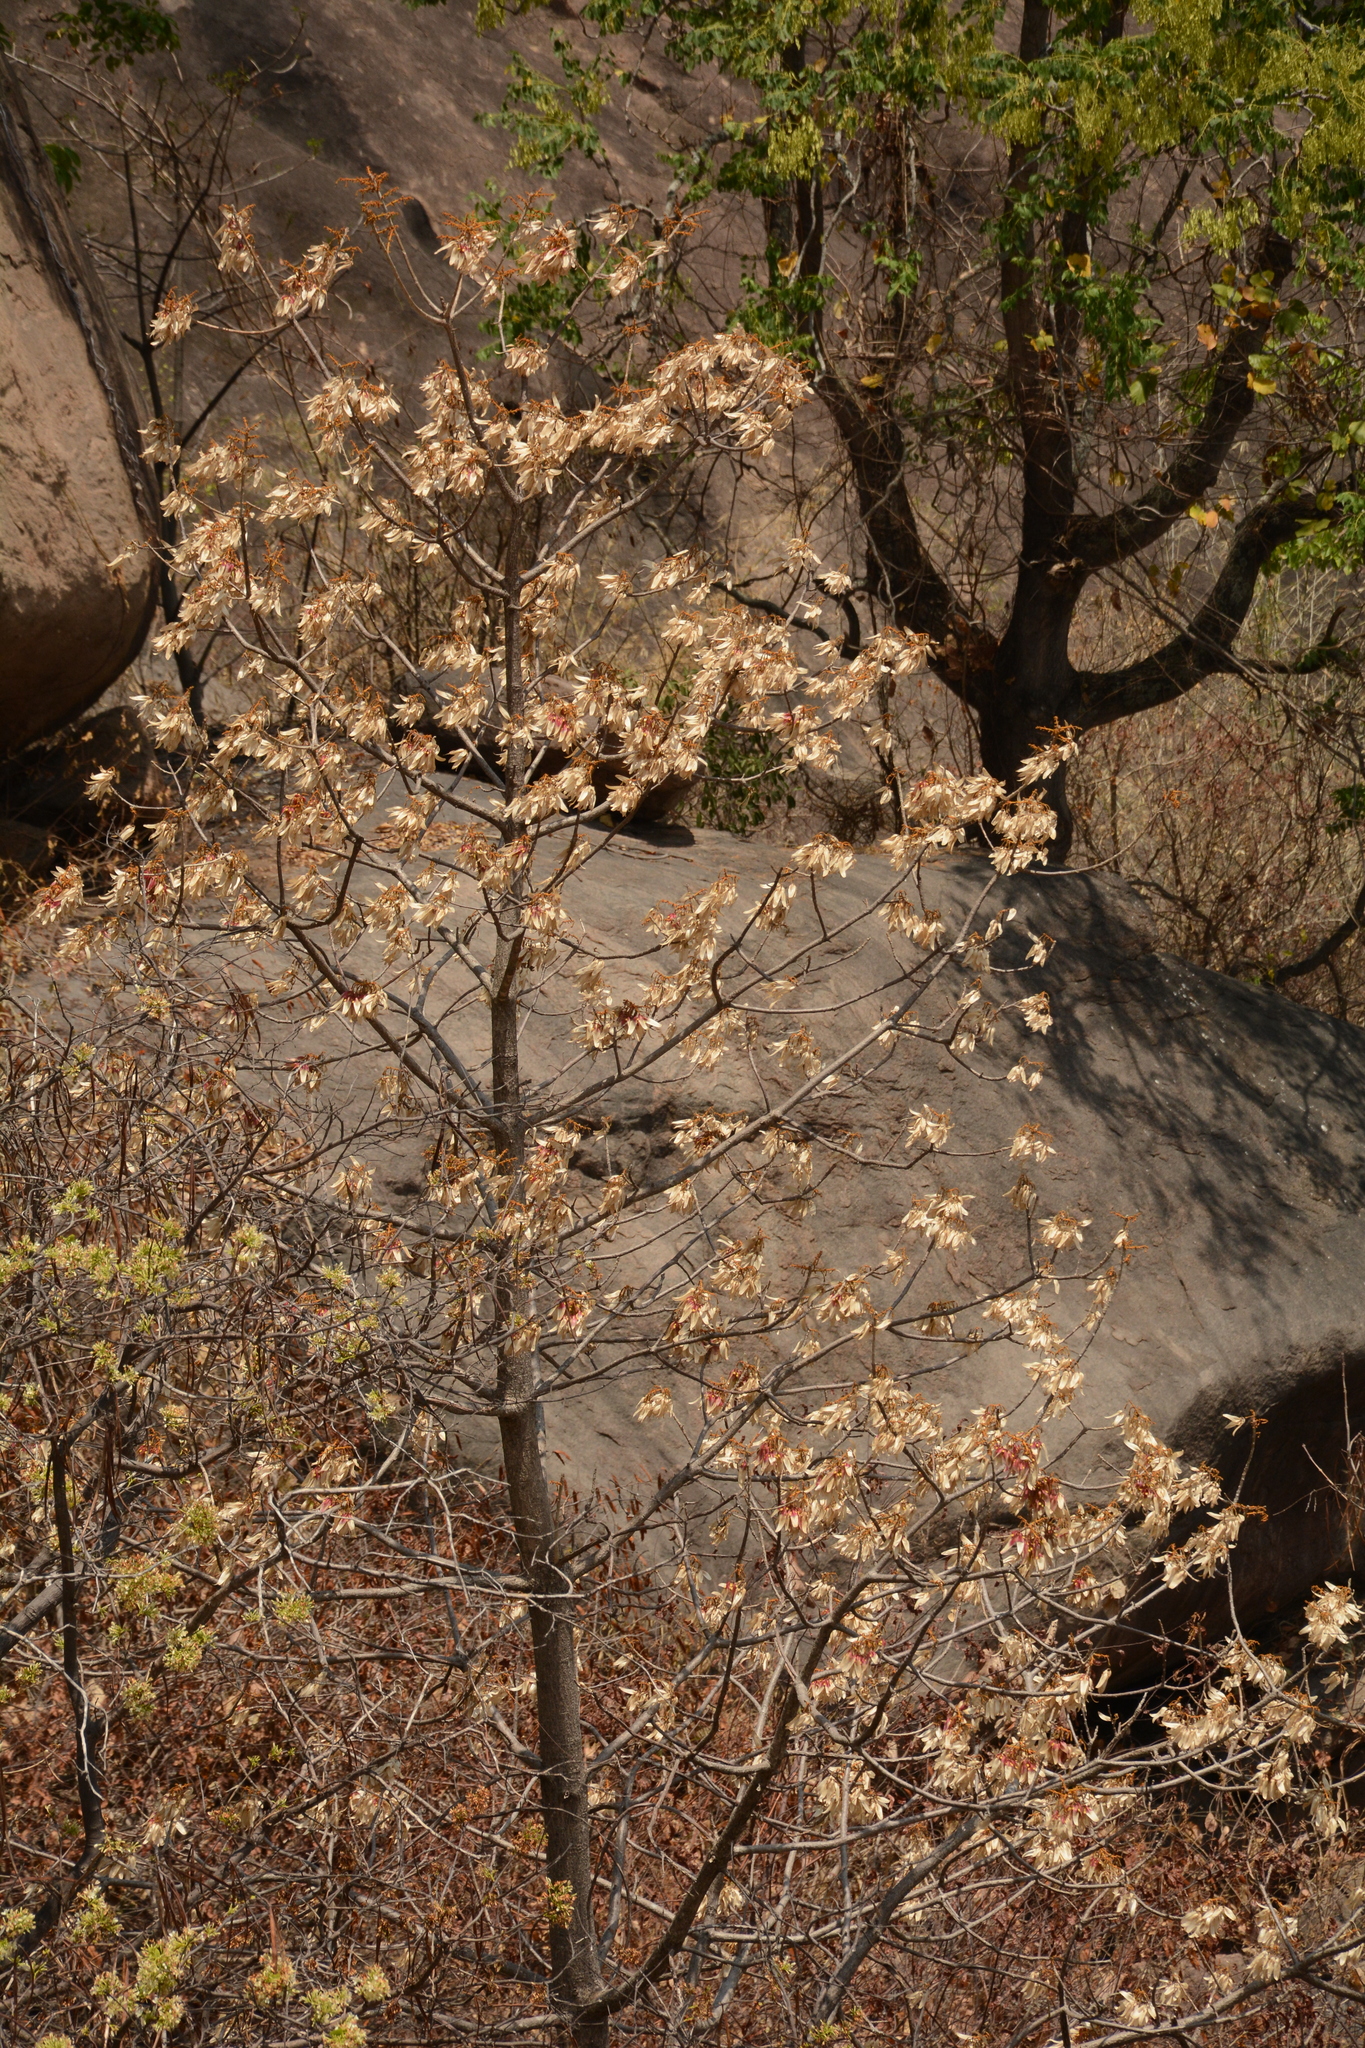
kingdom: Plantae
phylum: Tracheophyta
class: Magnoliopsida
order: Malvales
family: Malvaceae
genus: Firmiana
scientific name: Firmiana colorata
